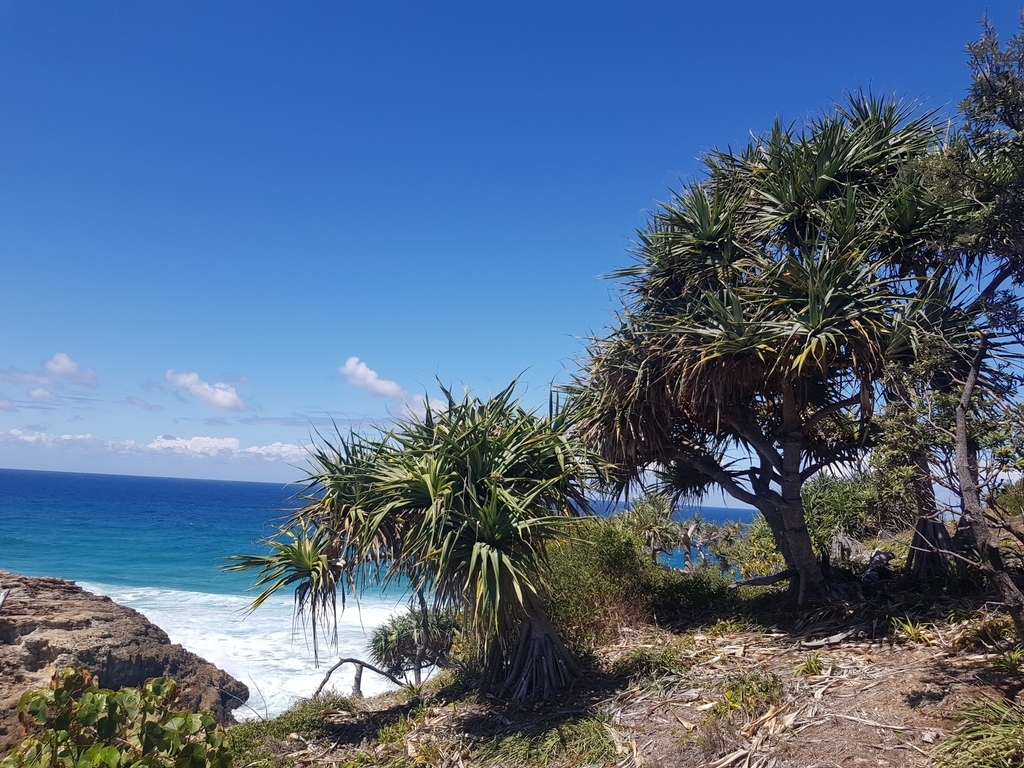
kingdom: Plantae
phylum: Tracheophyta
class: Liliopsida
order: Pandanales
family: Pandanaceae
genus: Pandanus
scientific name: Pandanus tectorius
